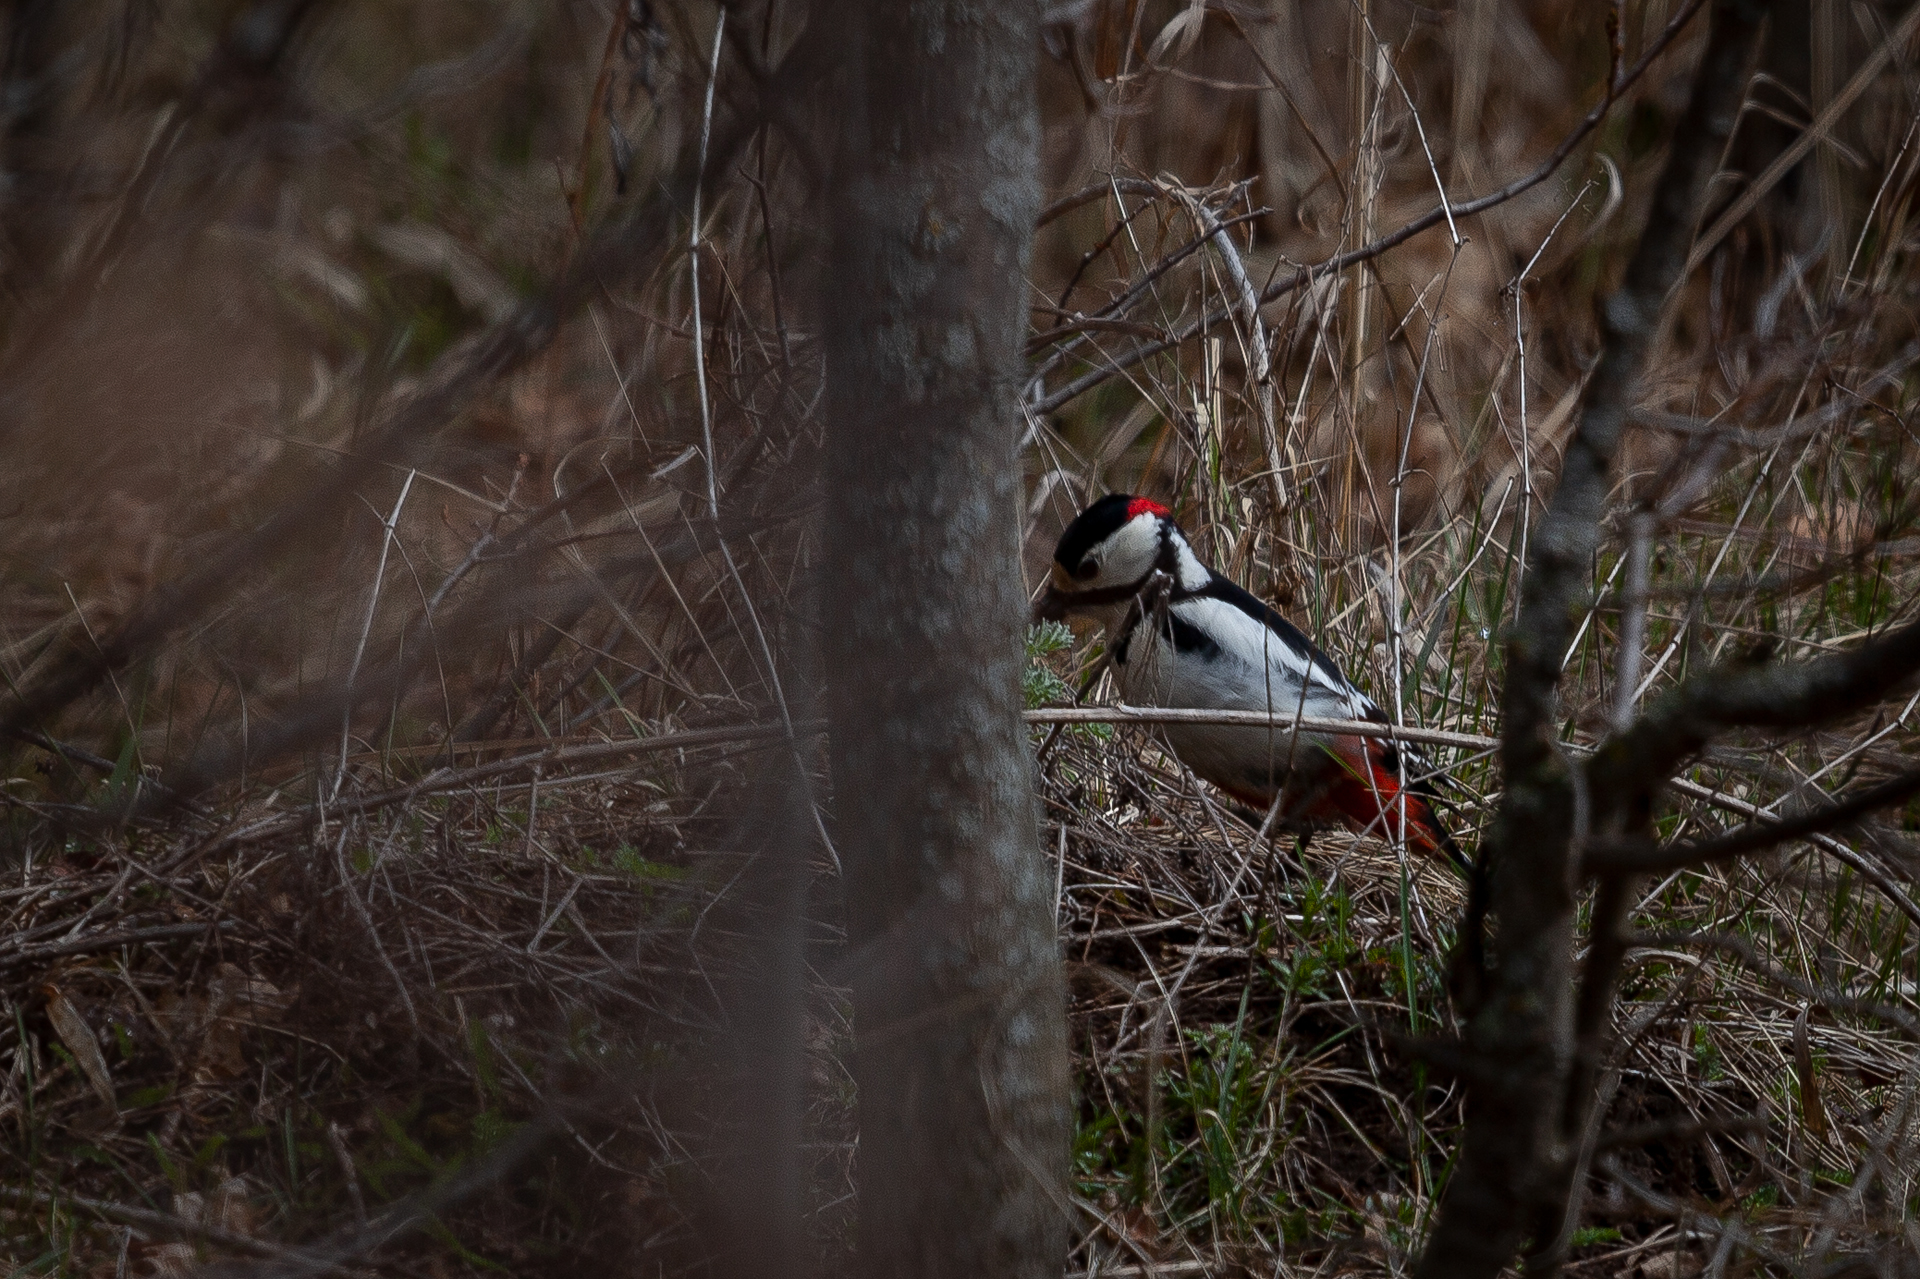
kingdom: Animalia
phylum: Chordata
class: Aves
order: Piciformes
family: Picidae
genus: Dendrocopos
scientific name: Dendrocopos major
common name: Great spotted woodpecker
